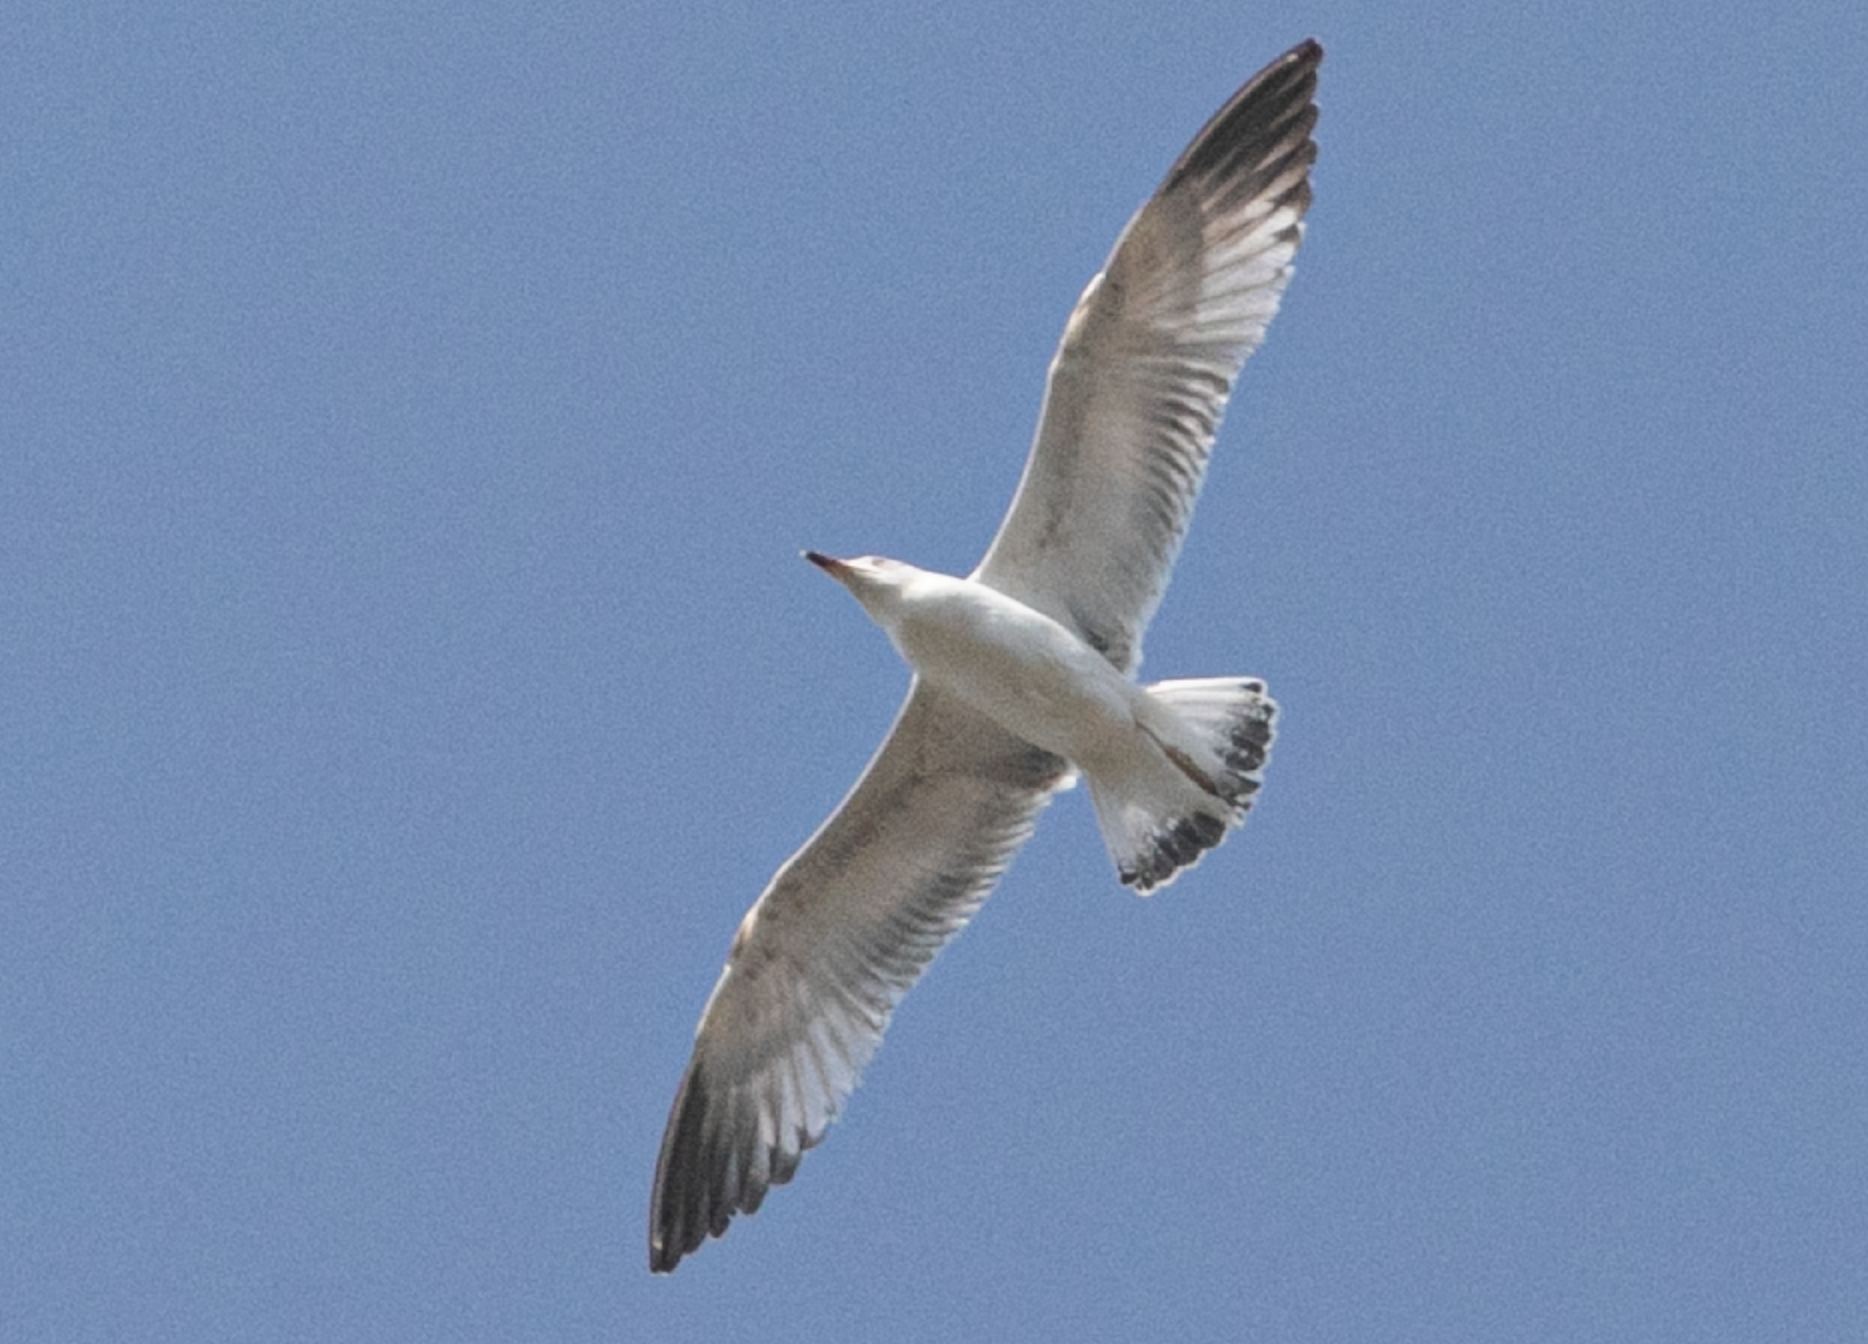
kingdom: Animalia
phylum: Chordata
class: Aves
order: Charadriiformes
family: Laridae
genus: Larus
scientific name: Larus michahellis
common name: Yellow-legged gull
